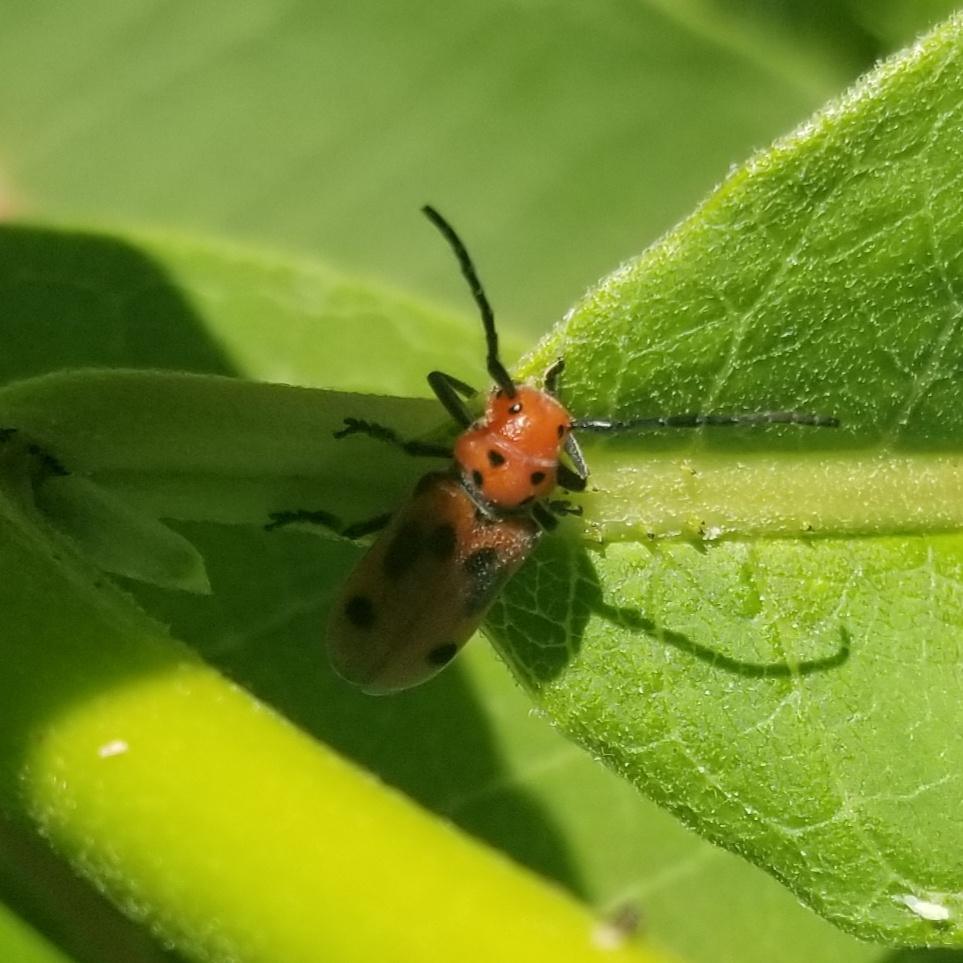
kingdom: Animalia
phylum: Arthropoda
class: Insecta
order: Coleoptera
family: Cerambycidae
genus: Tetraopes
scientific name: Tetraopes tetrophthalmus
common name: Red milkweed beetle
